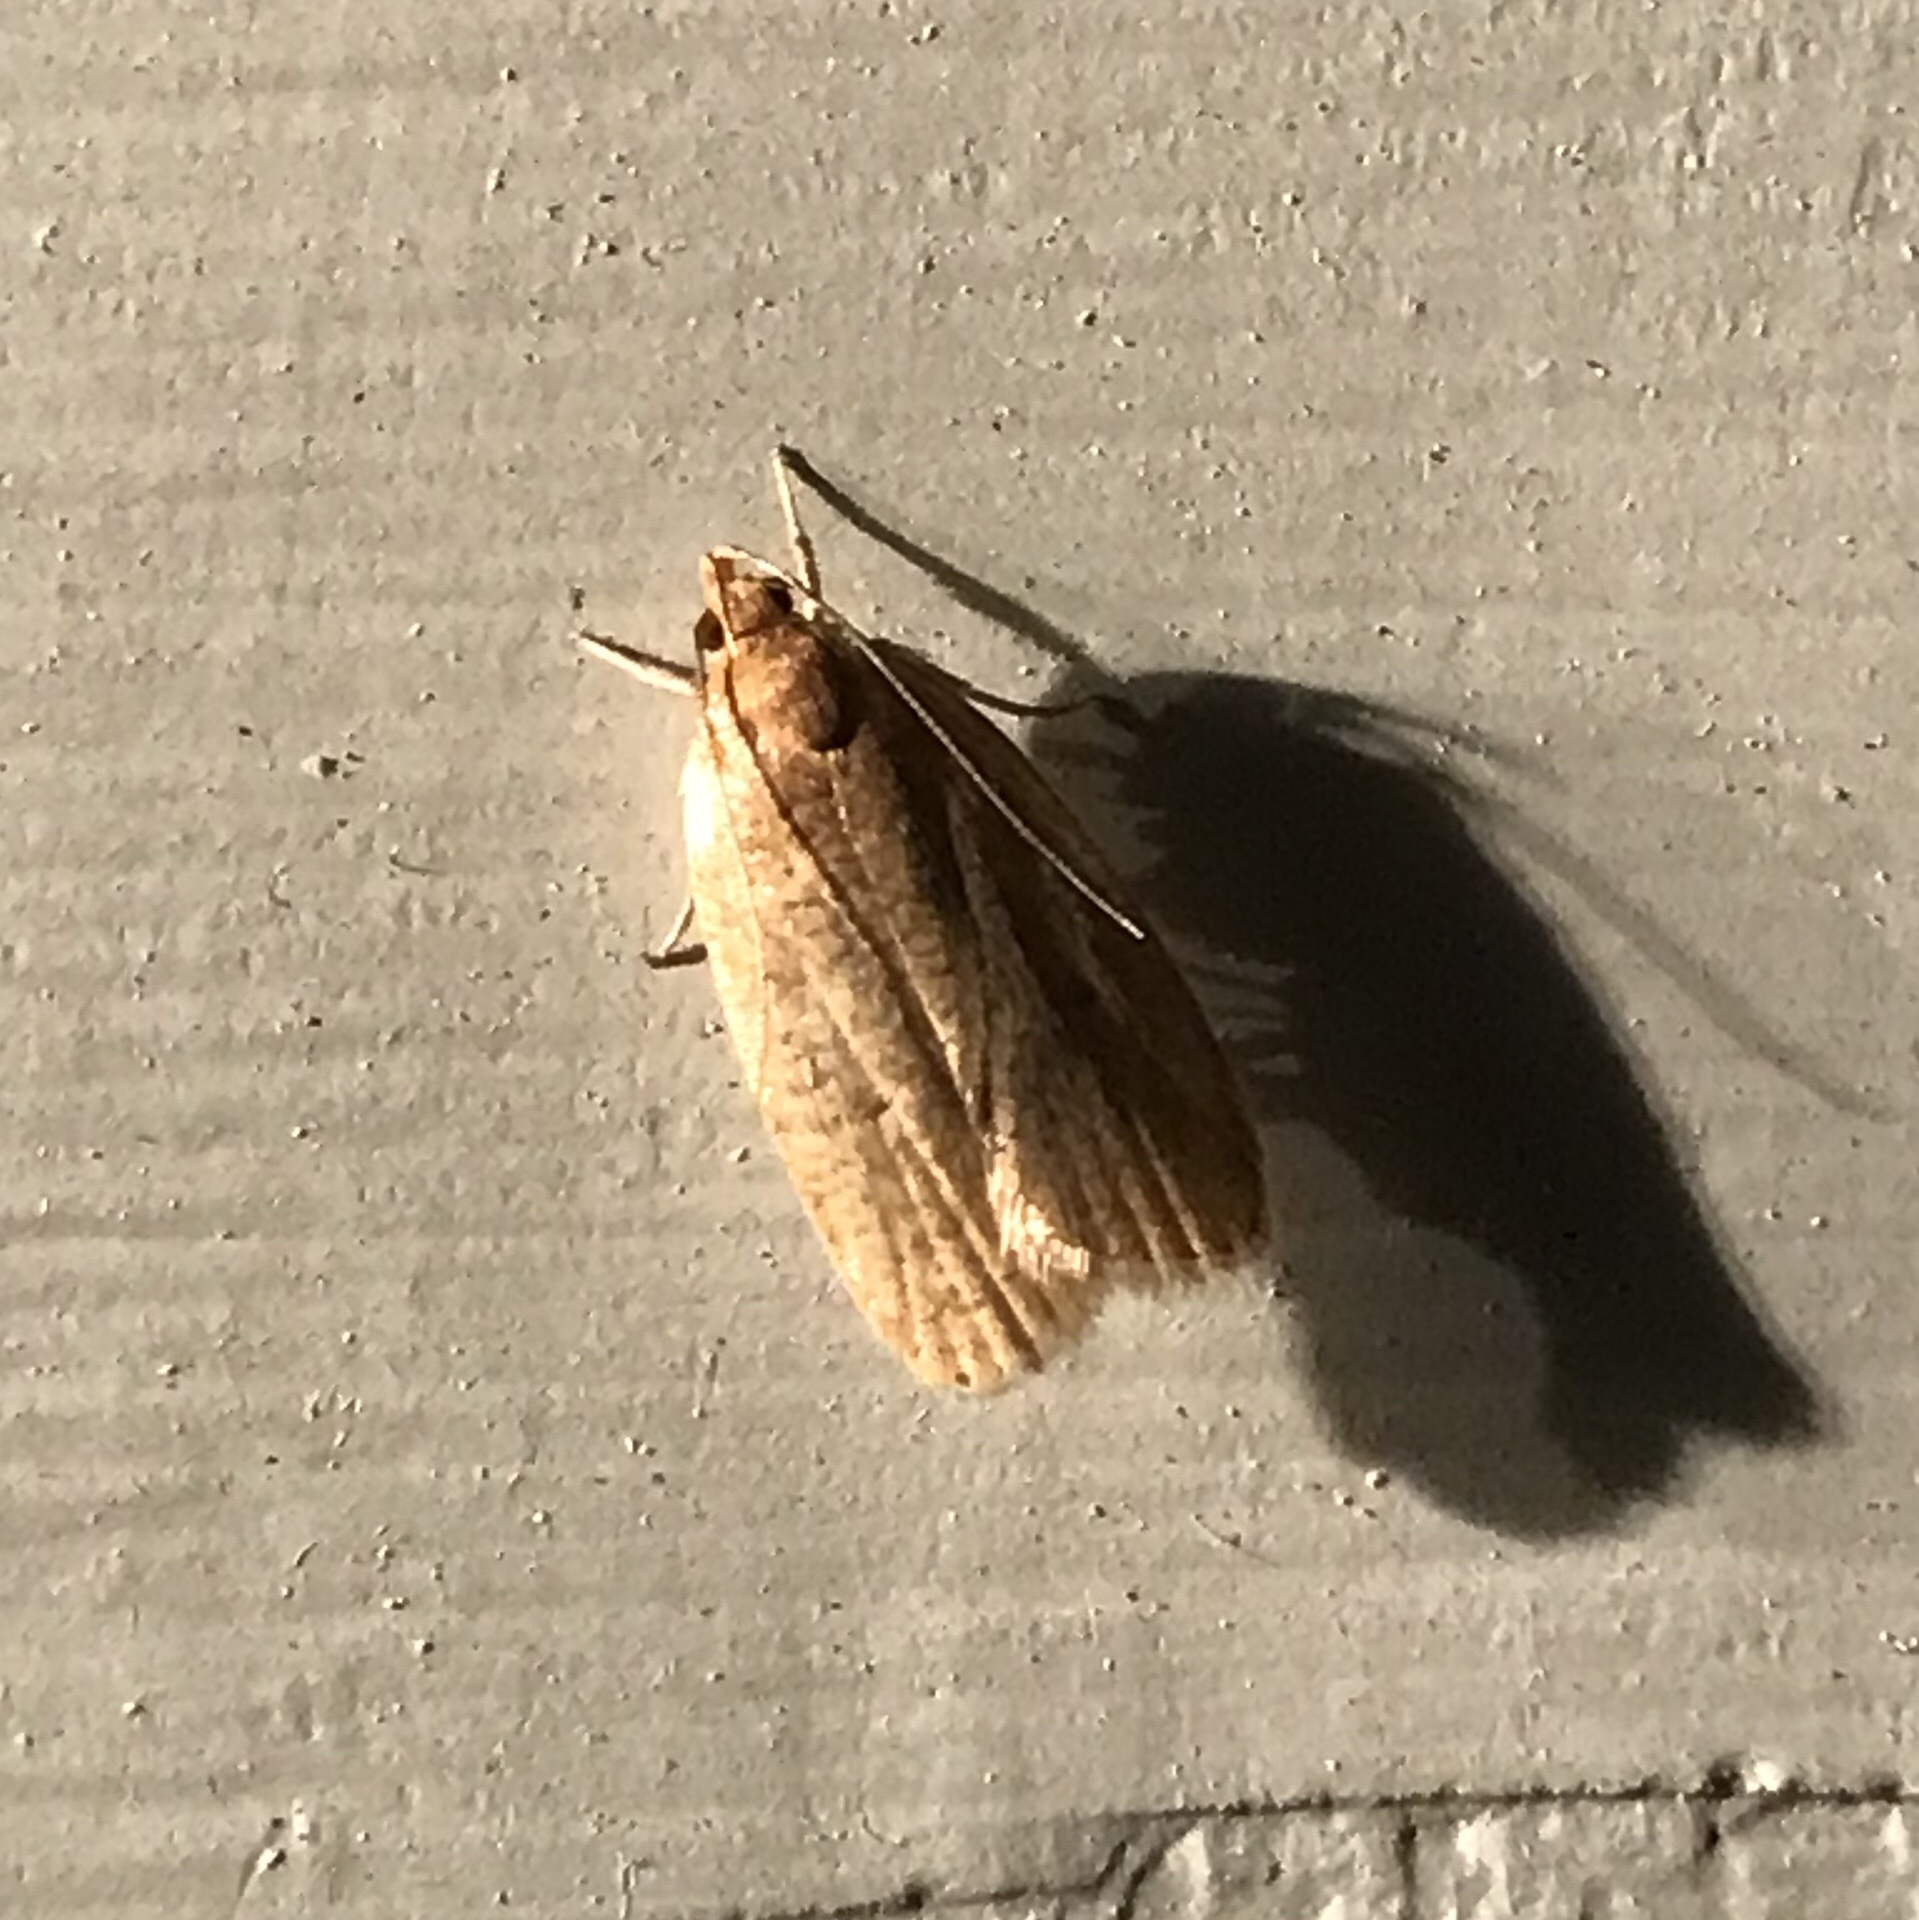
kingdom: Animalia
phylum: Arthropoda
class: Insecta
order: Lepidoptera
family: Depressariidae
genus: Psilocorsis
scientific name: Psilocorsis reflexella
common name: Dotted leaftier moth
